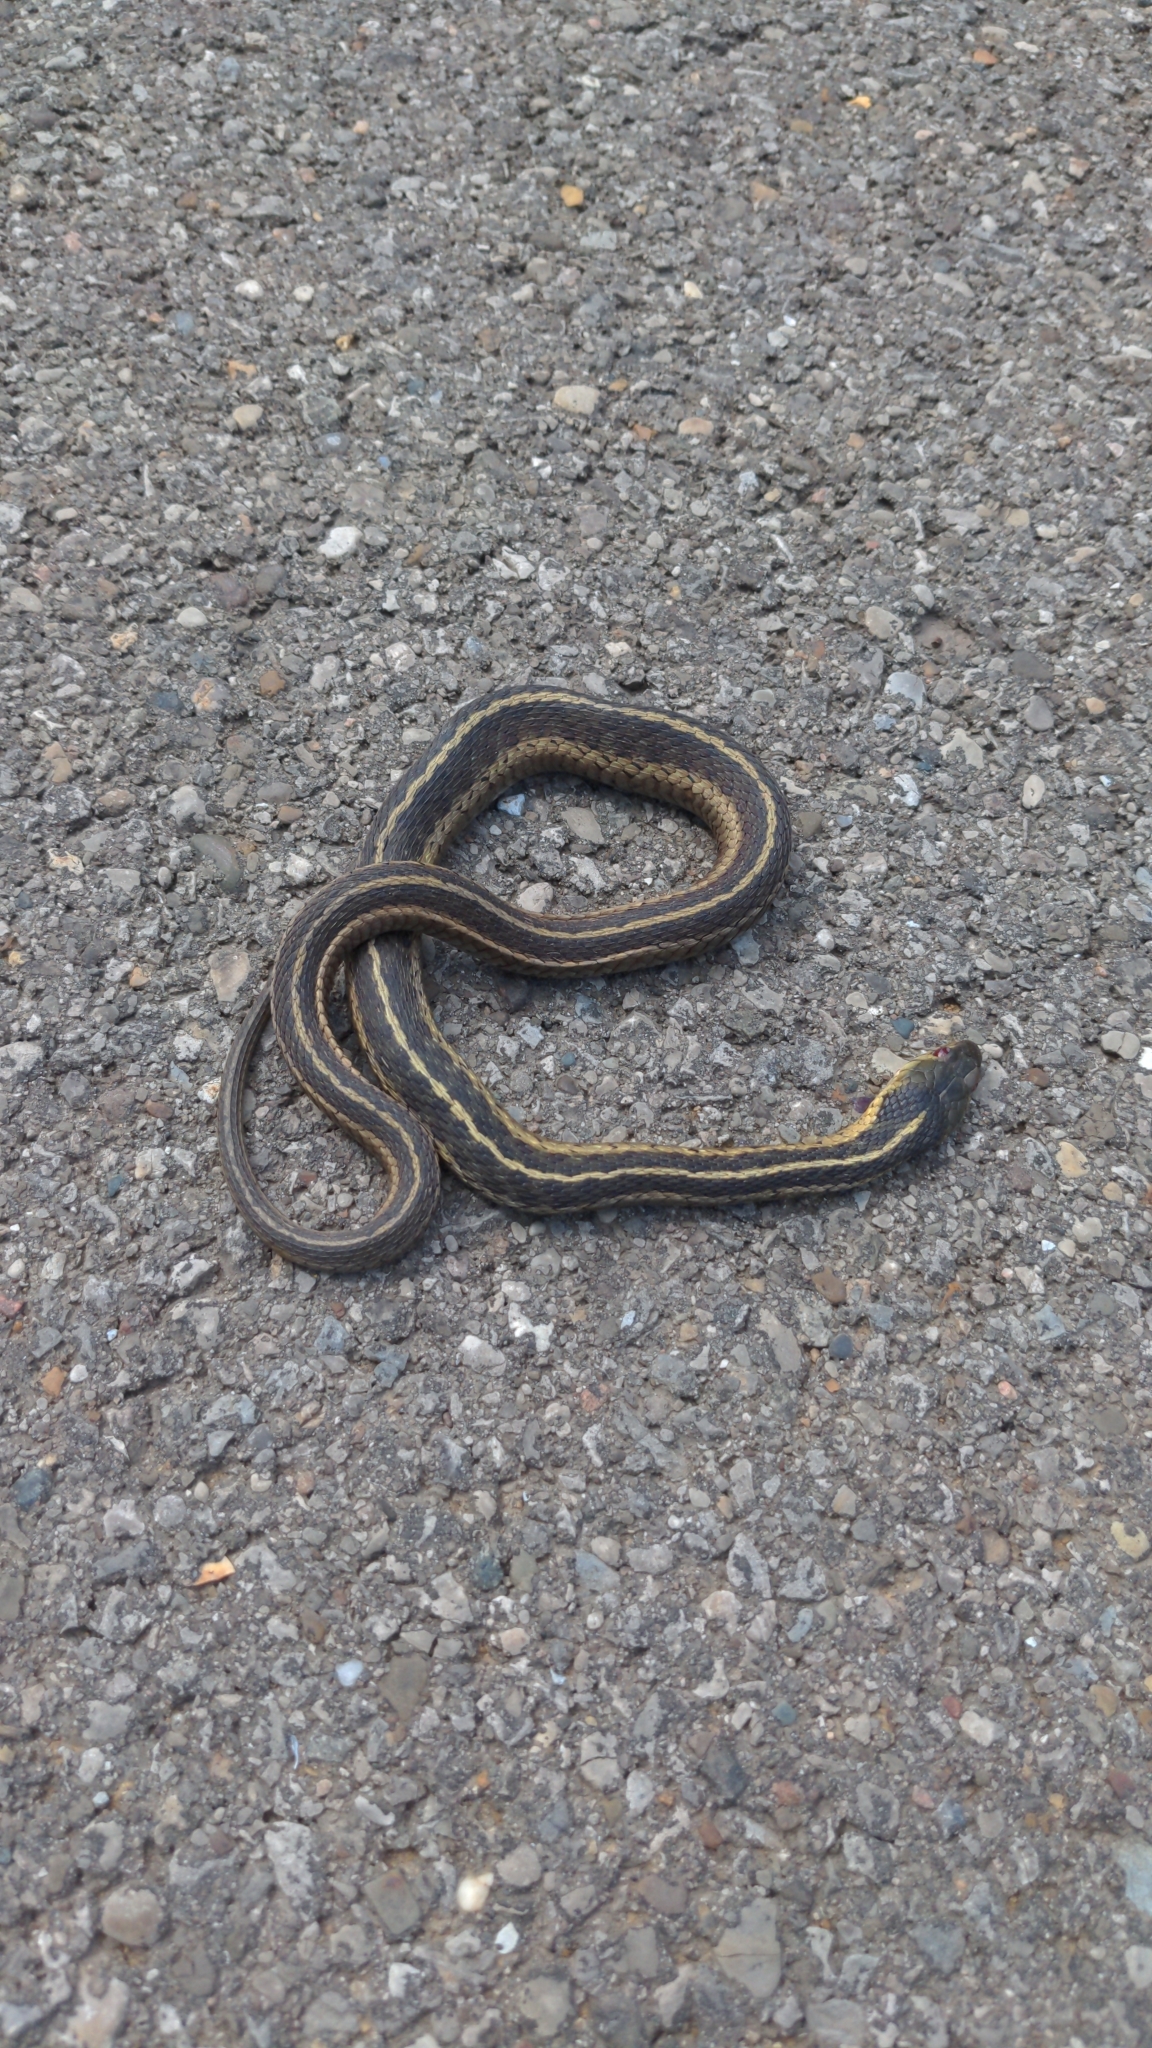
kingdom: Animalia
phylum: Chordata
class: Squamata
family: Colubridae
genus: Thamnophis
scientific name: Thamnophis sirtalis
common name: Common garter snake
